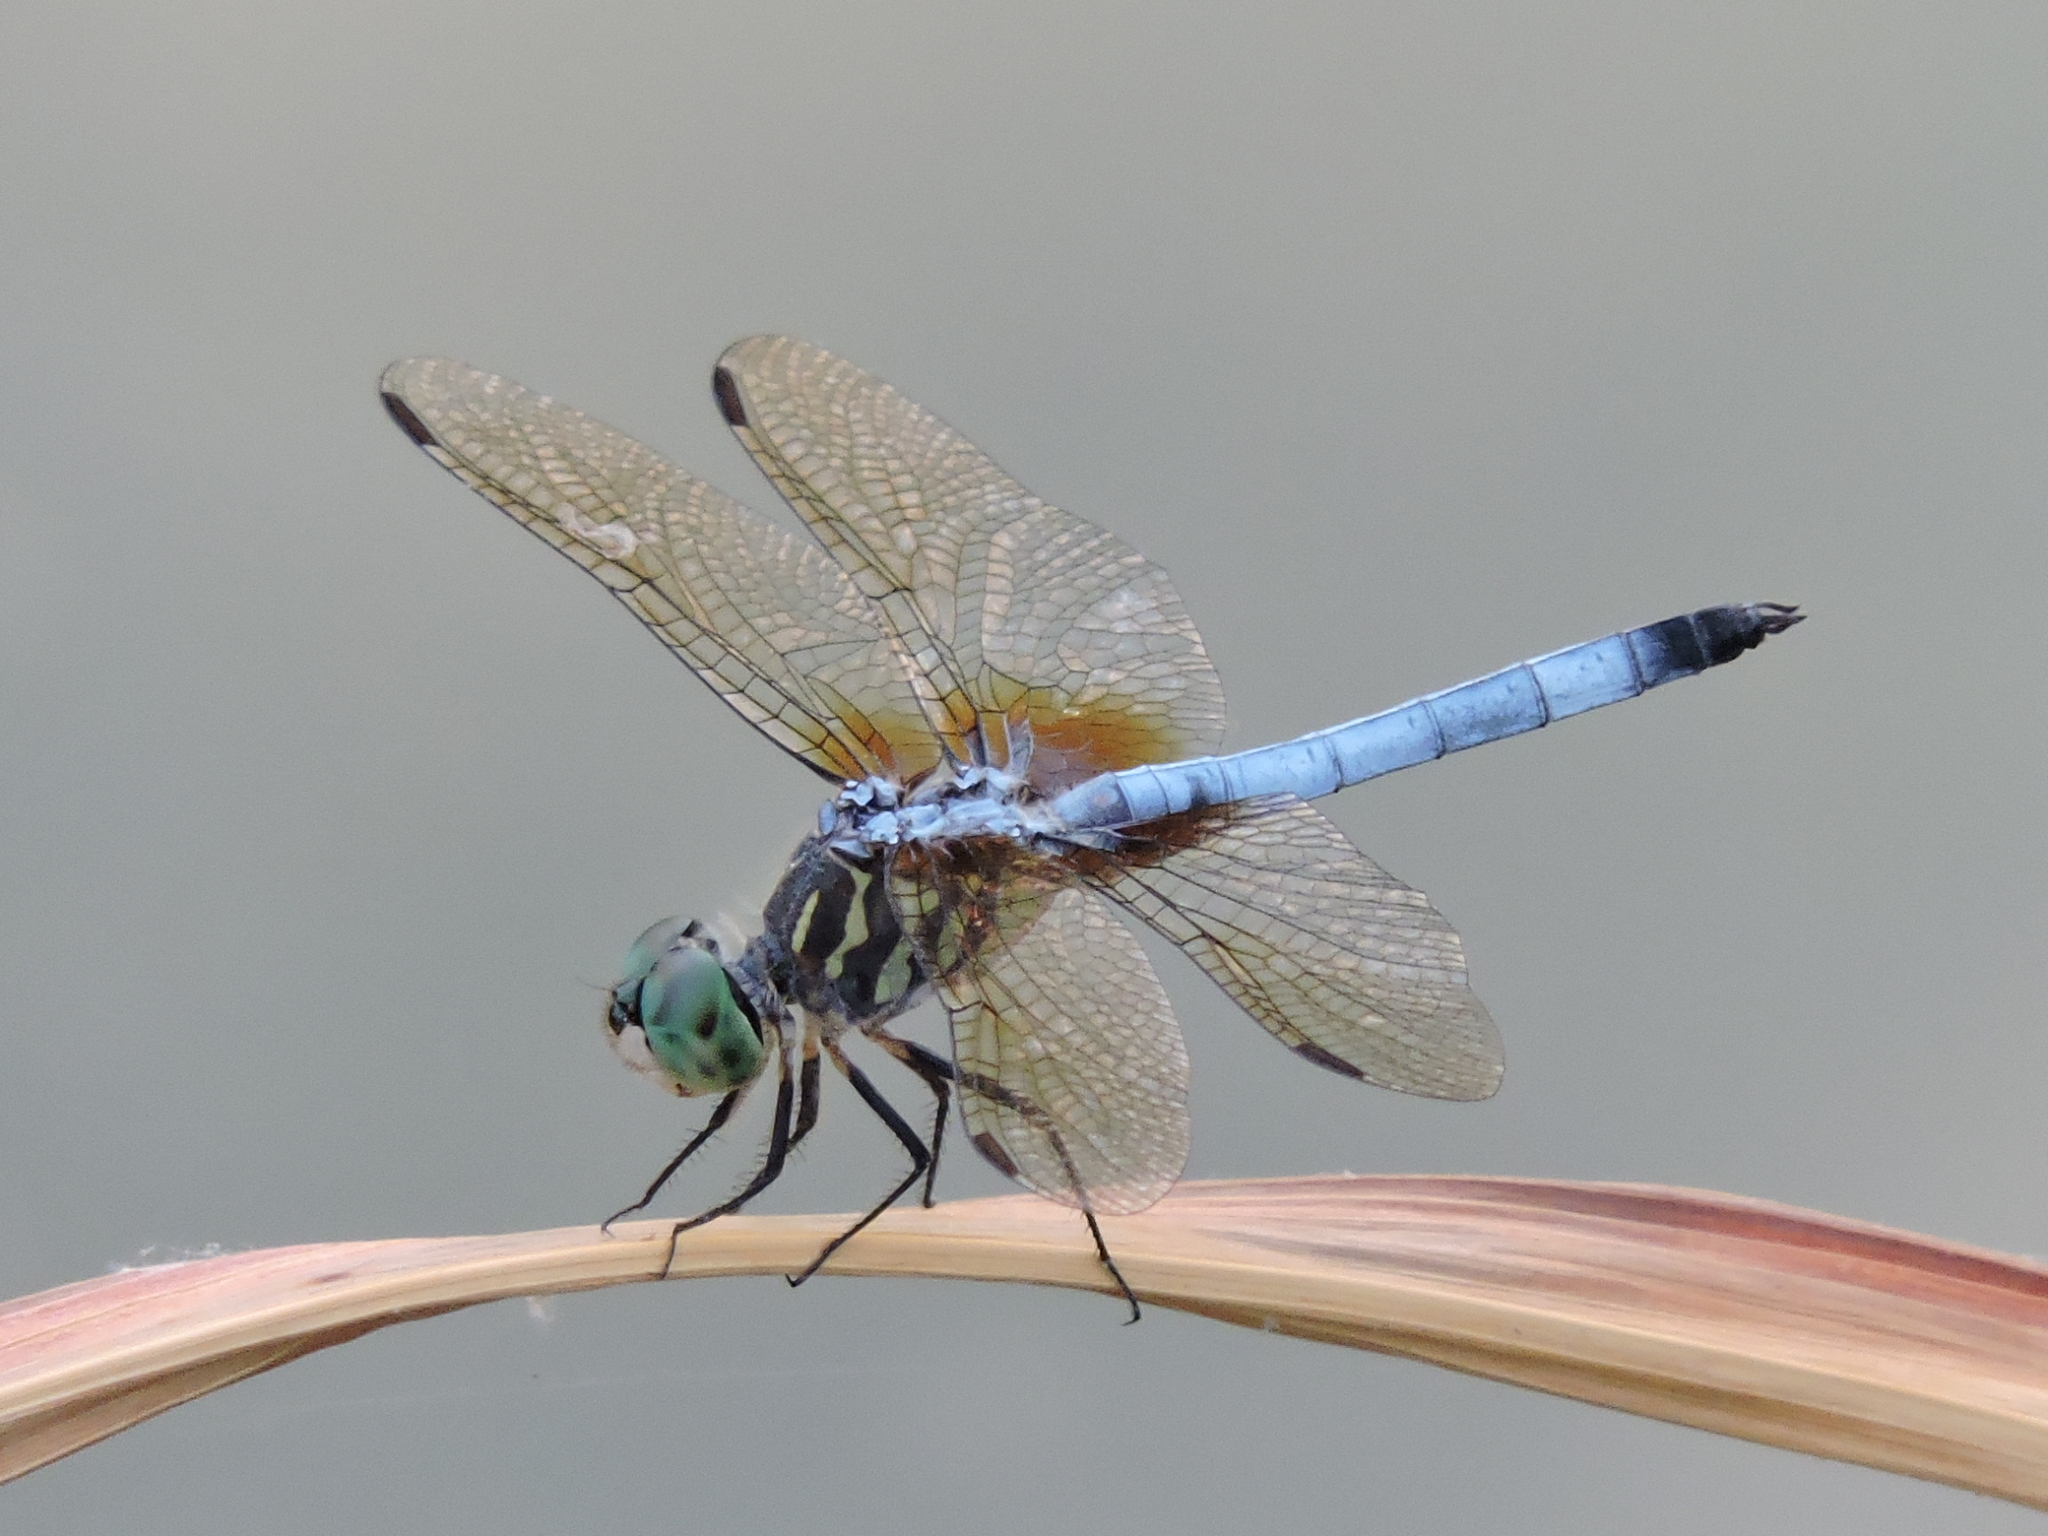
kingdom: Animalia
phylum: Arthropoda
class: Insecta
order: Odonata
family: Libellulidae
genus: Pachydiplax
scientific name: Pachydiplax longipennis
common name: Blue dasher
